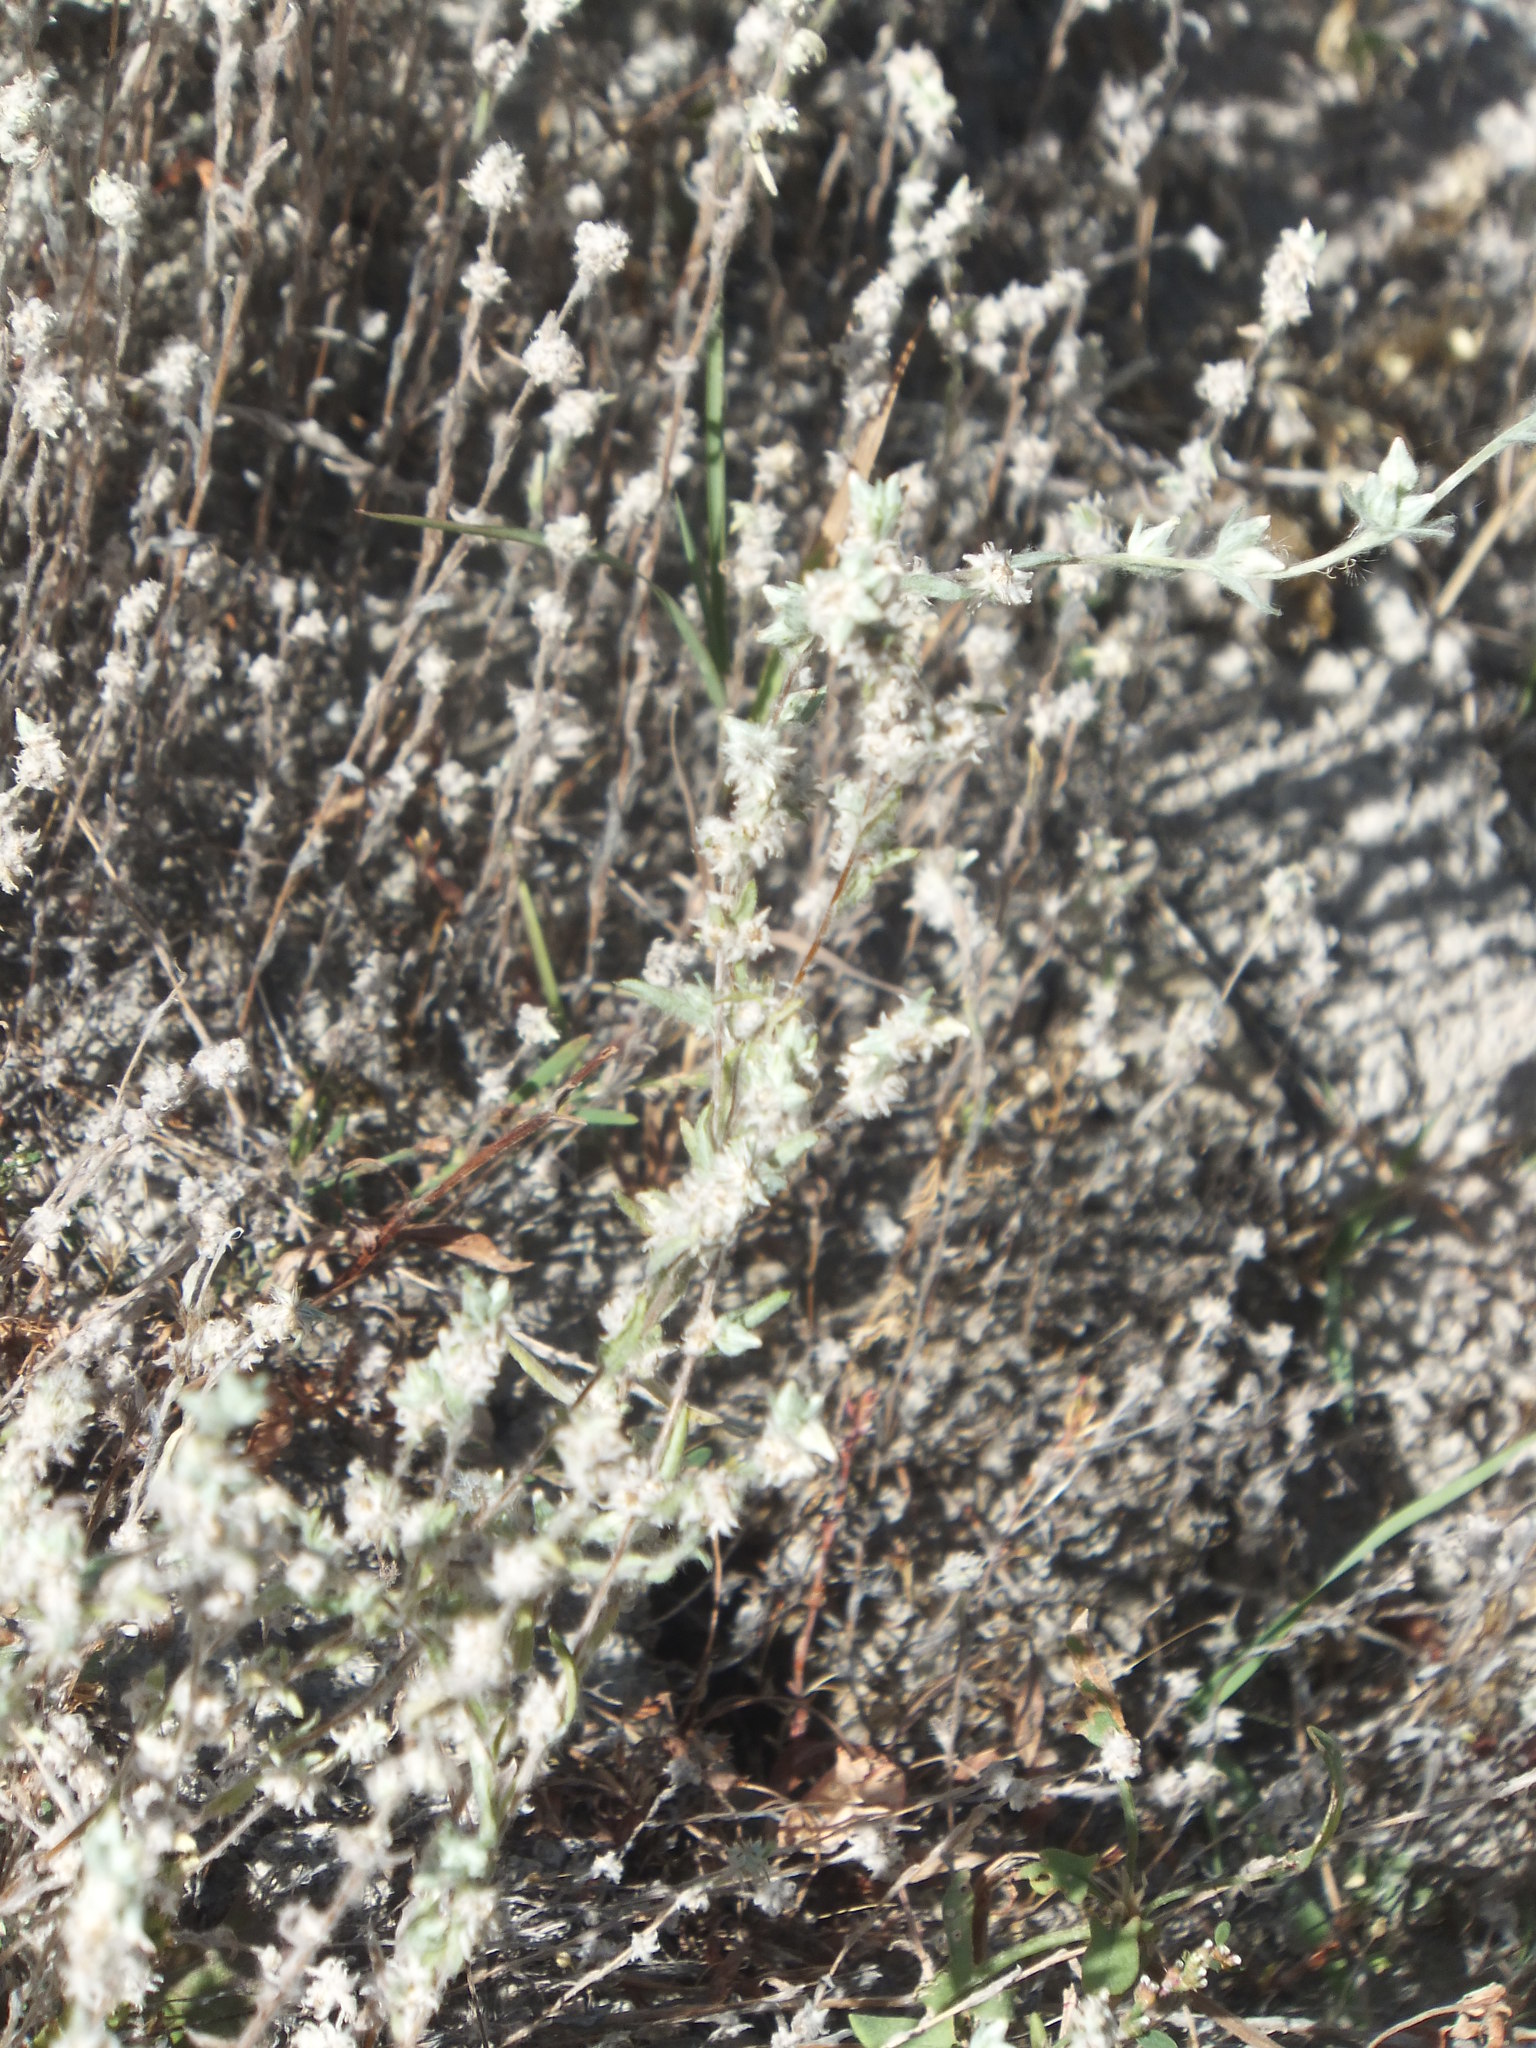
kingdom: Plantae
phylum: Tracheophyta
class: Magnoliopsida
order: Asterales
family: Asteraceae
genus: Filago
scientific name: Filago arvensis
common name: Field cudweed
